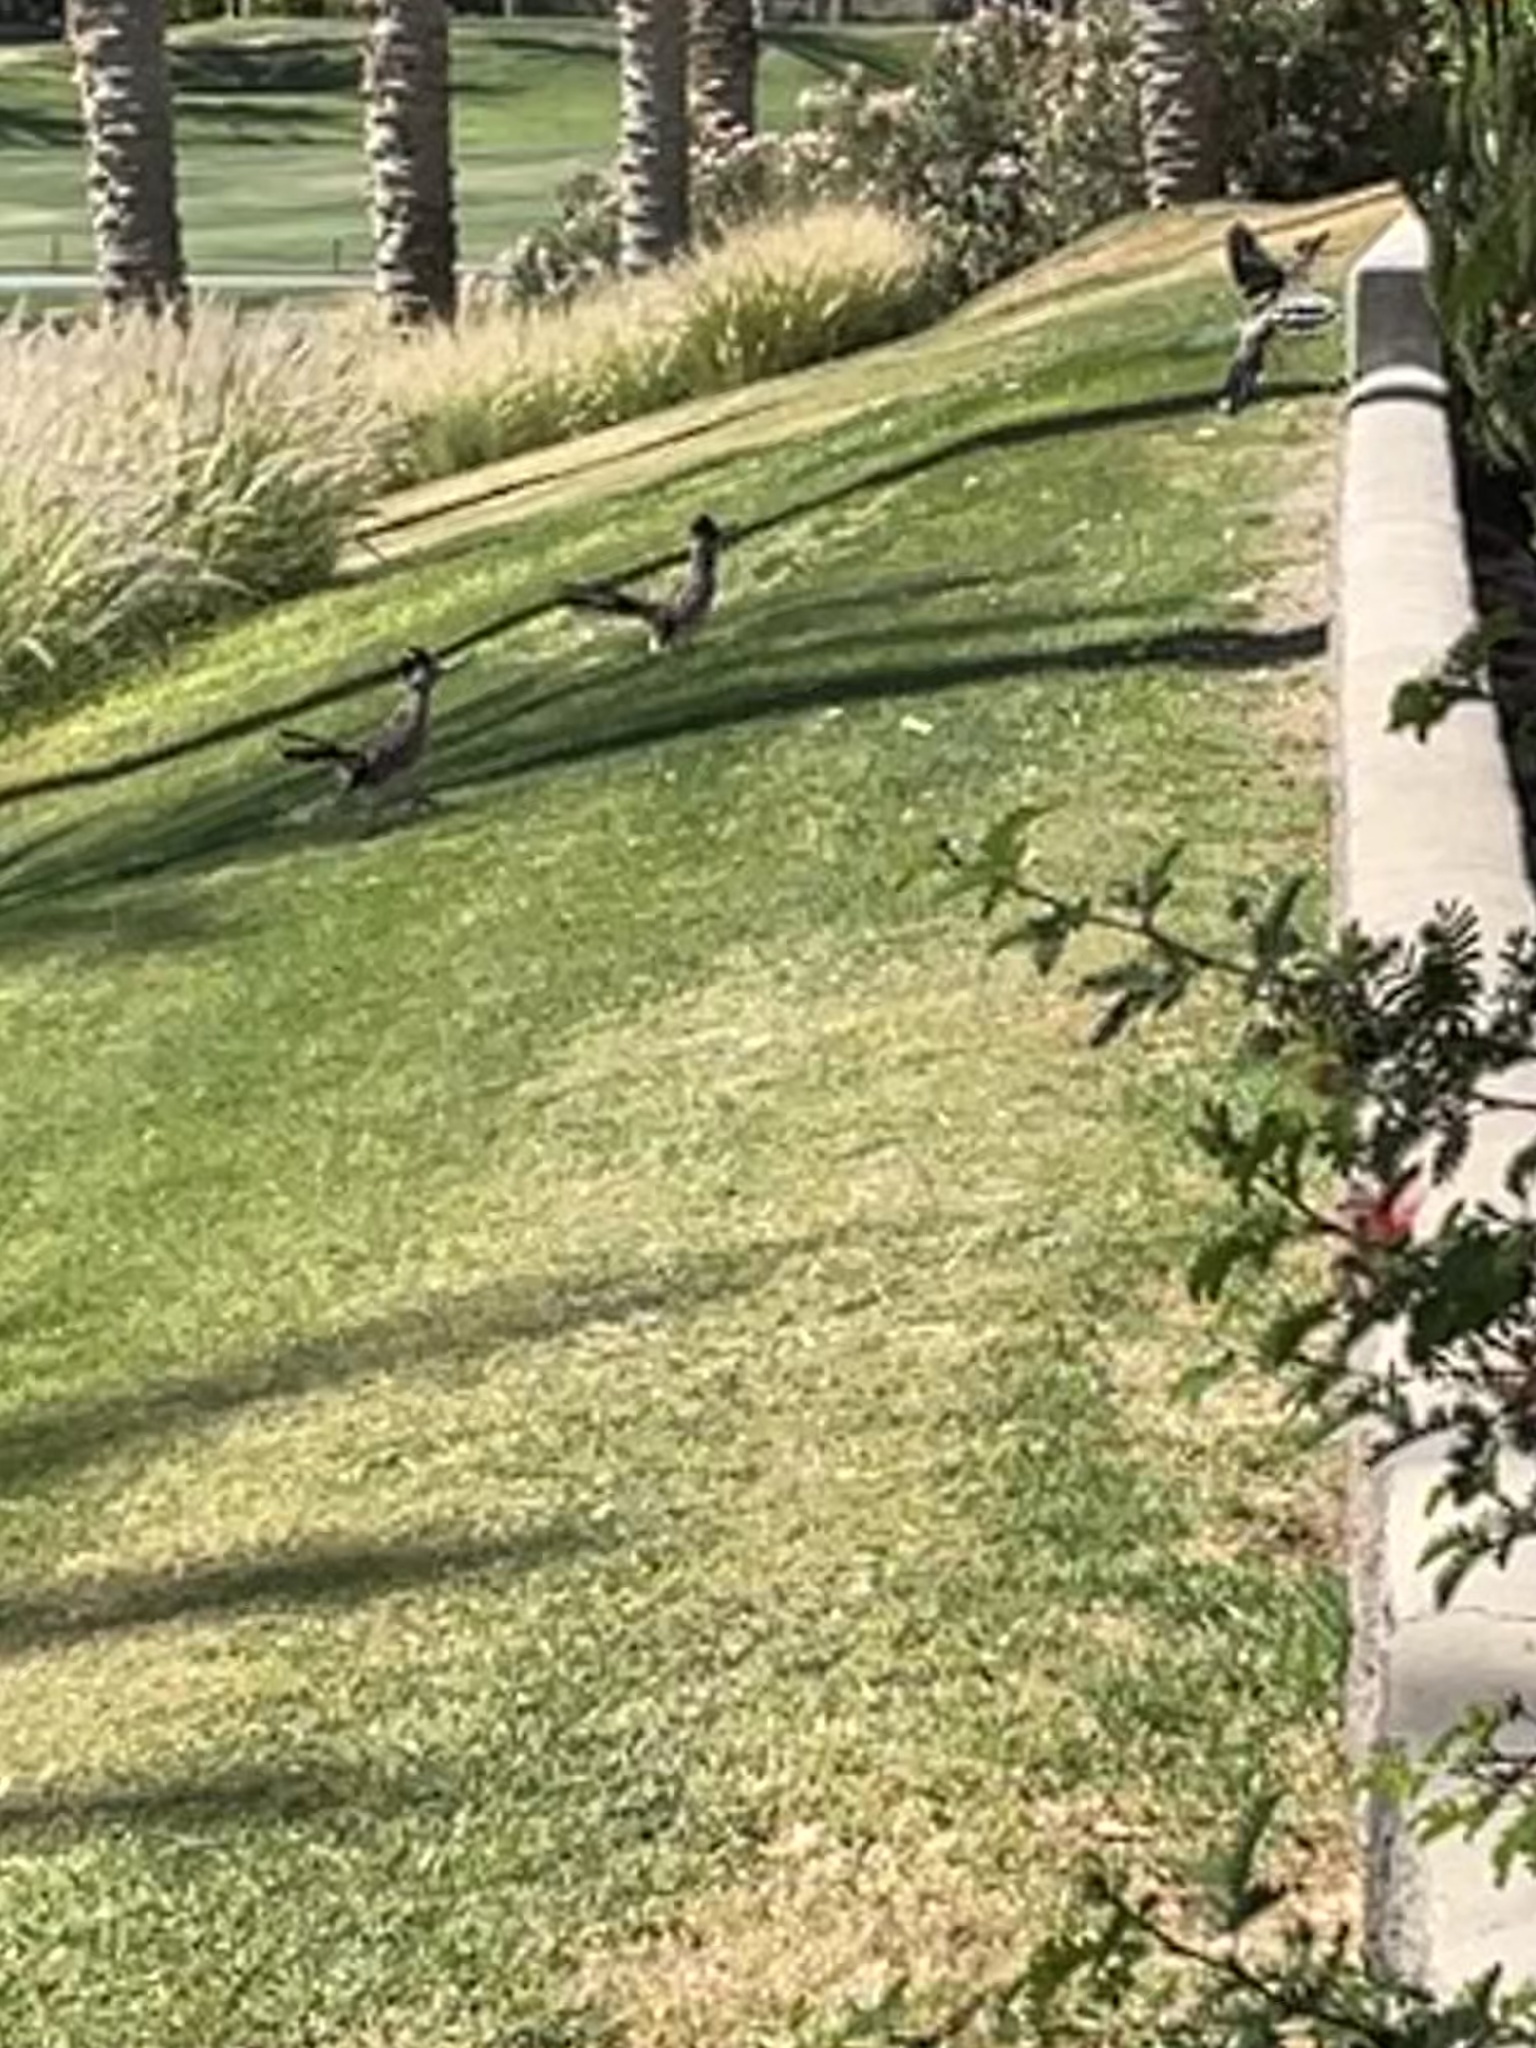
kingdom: Animalia
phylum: Chordata
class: Aves
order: Cuculiformes
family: Cuculidae
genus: Geococcyx
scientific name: Geococcyx californianus
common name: Greater roadrunner
